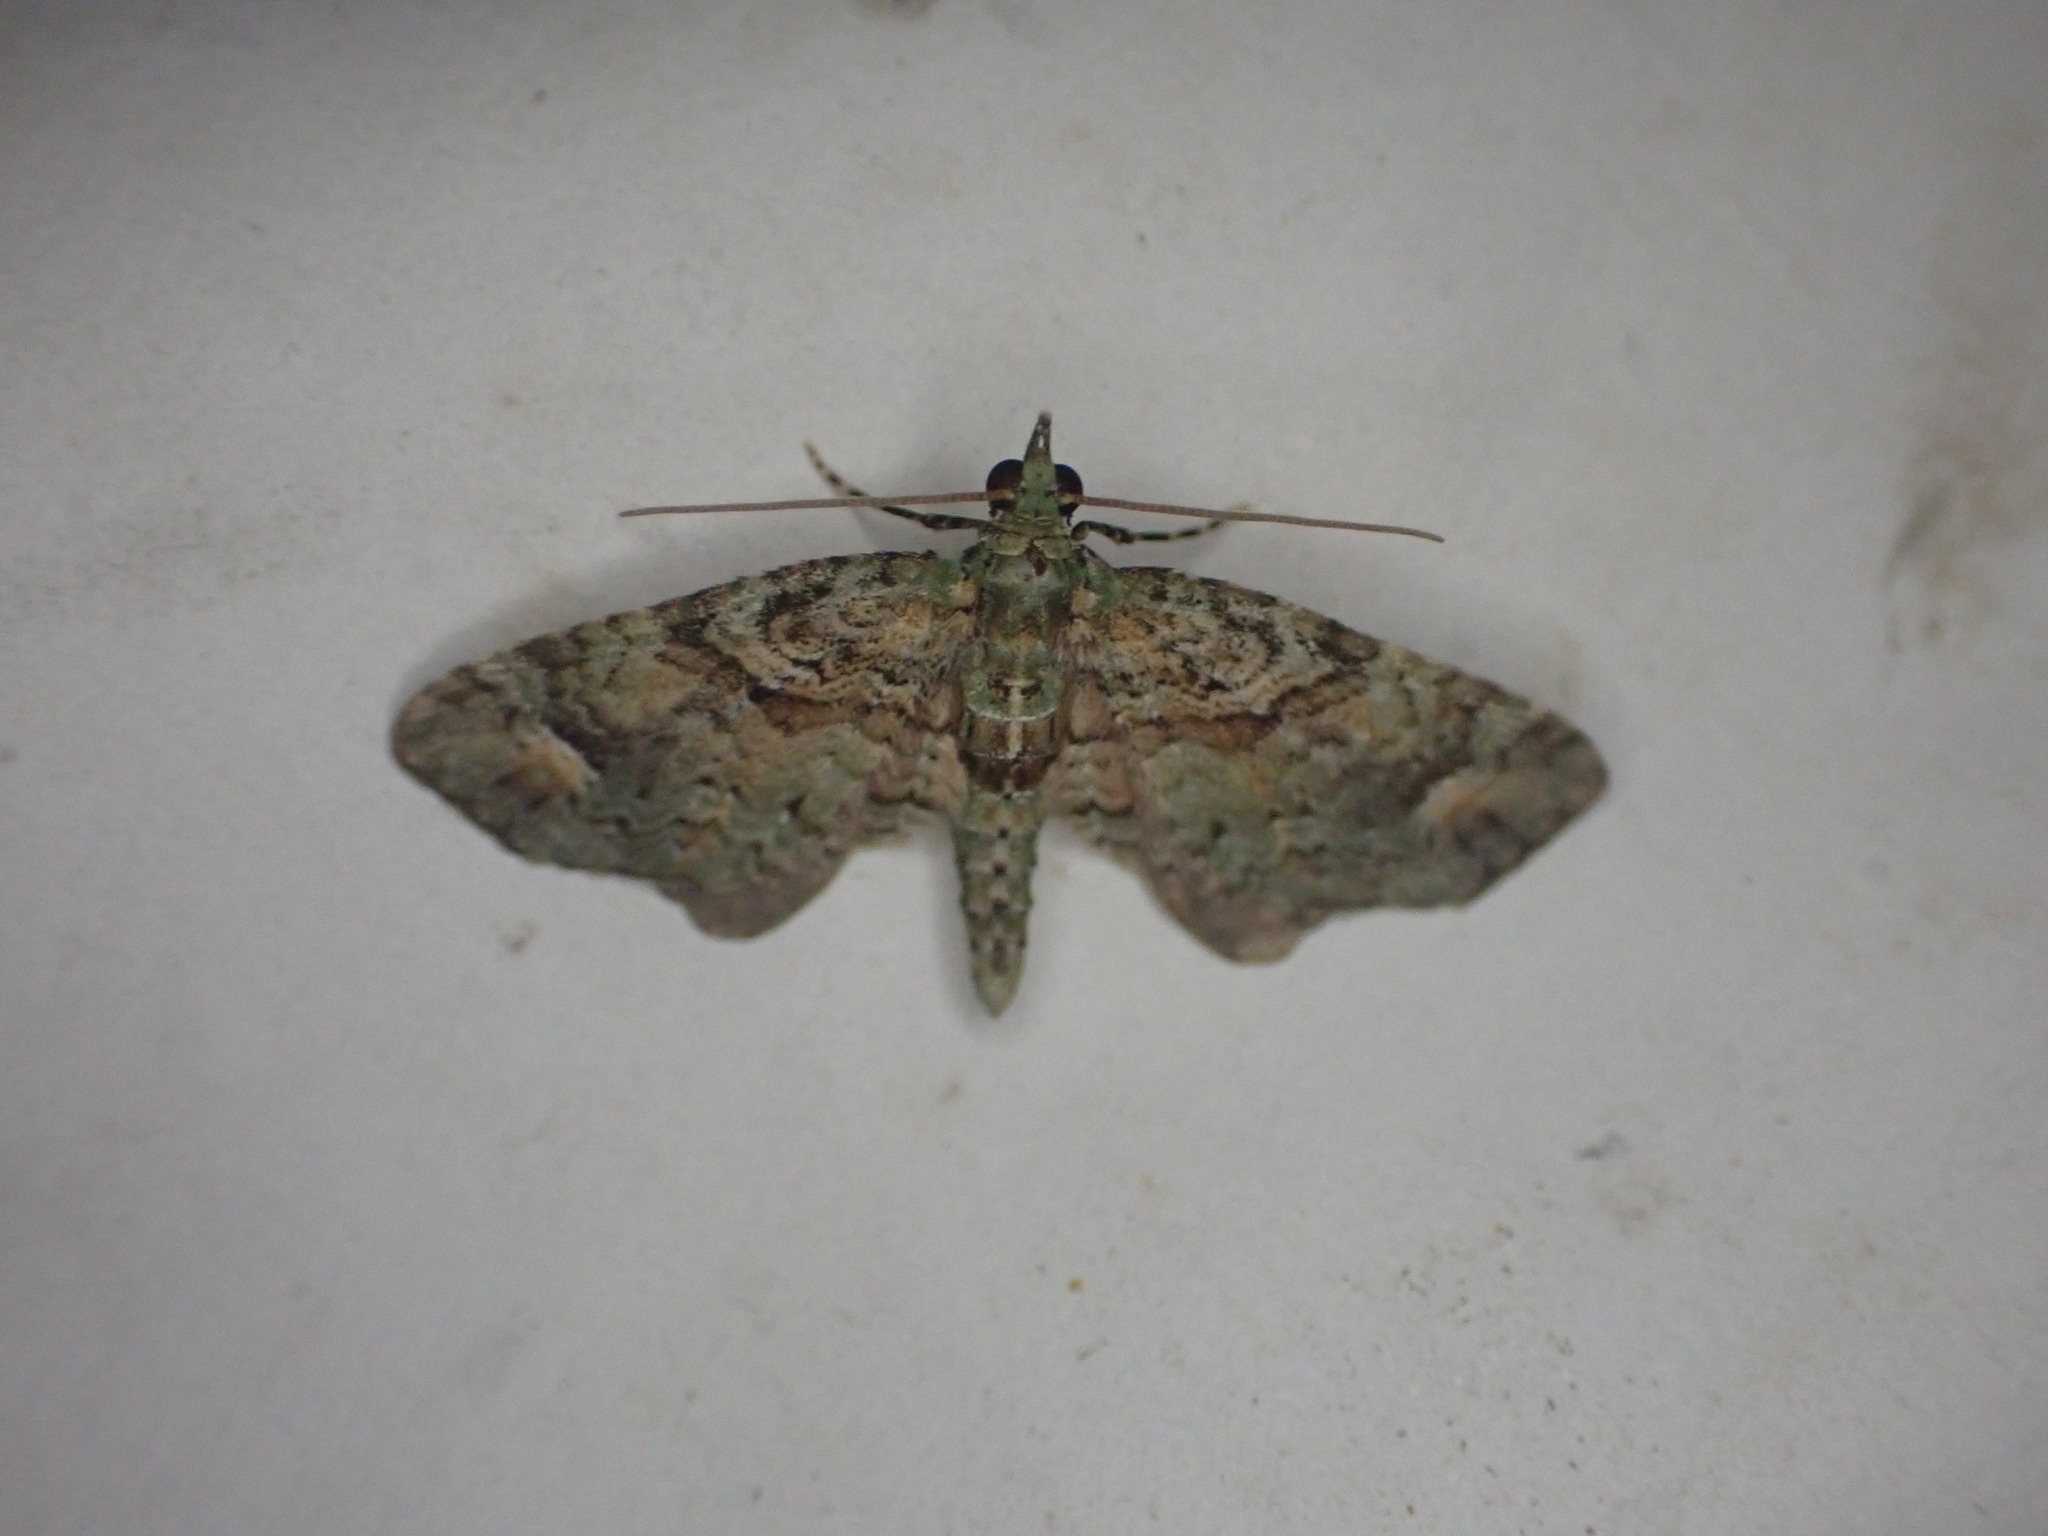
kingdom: Animalia
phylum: Arthropoda
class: Insecta
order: Lepidoptera
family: Geometridae
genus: Idaea
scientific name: Idaea mutanda
